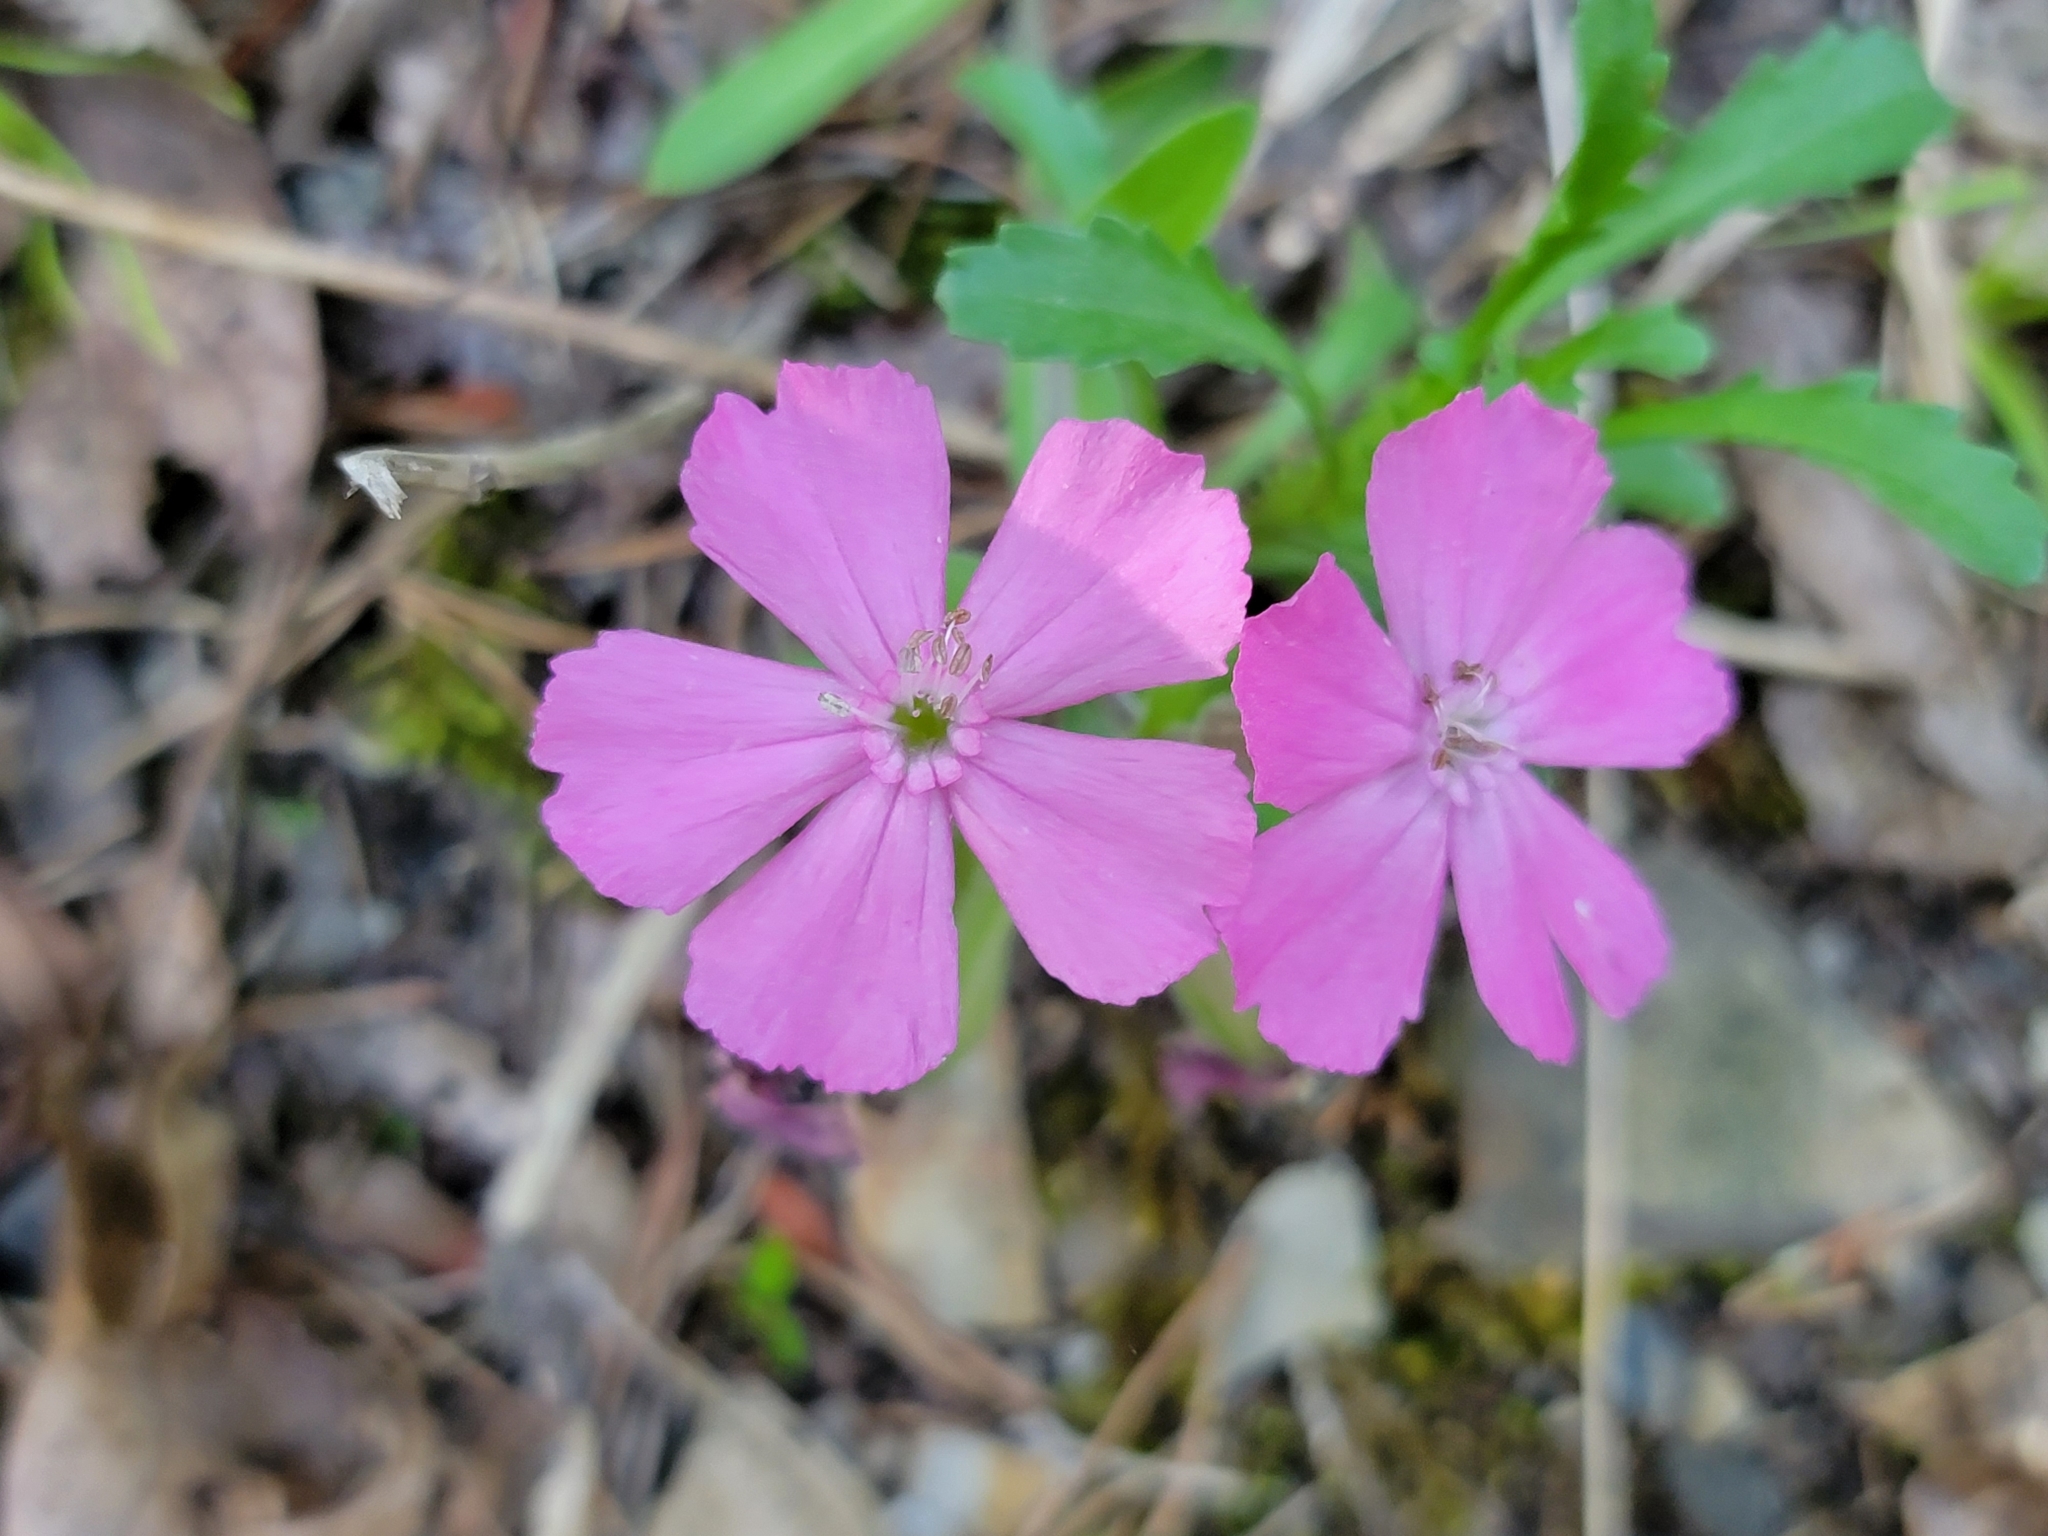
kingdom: Plantae
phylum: Tracheophyta
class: Magnoliopsida
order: Caryophyllales
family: Caryophyllaceae
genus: Silene
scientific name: Silene caroliniana
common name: Sticky catchfly
